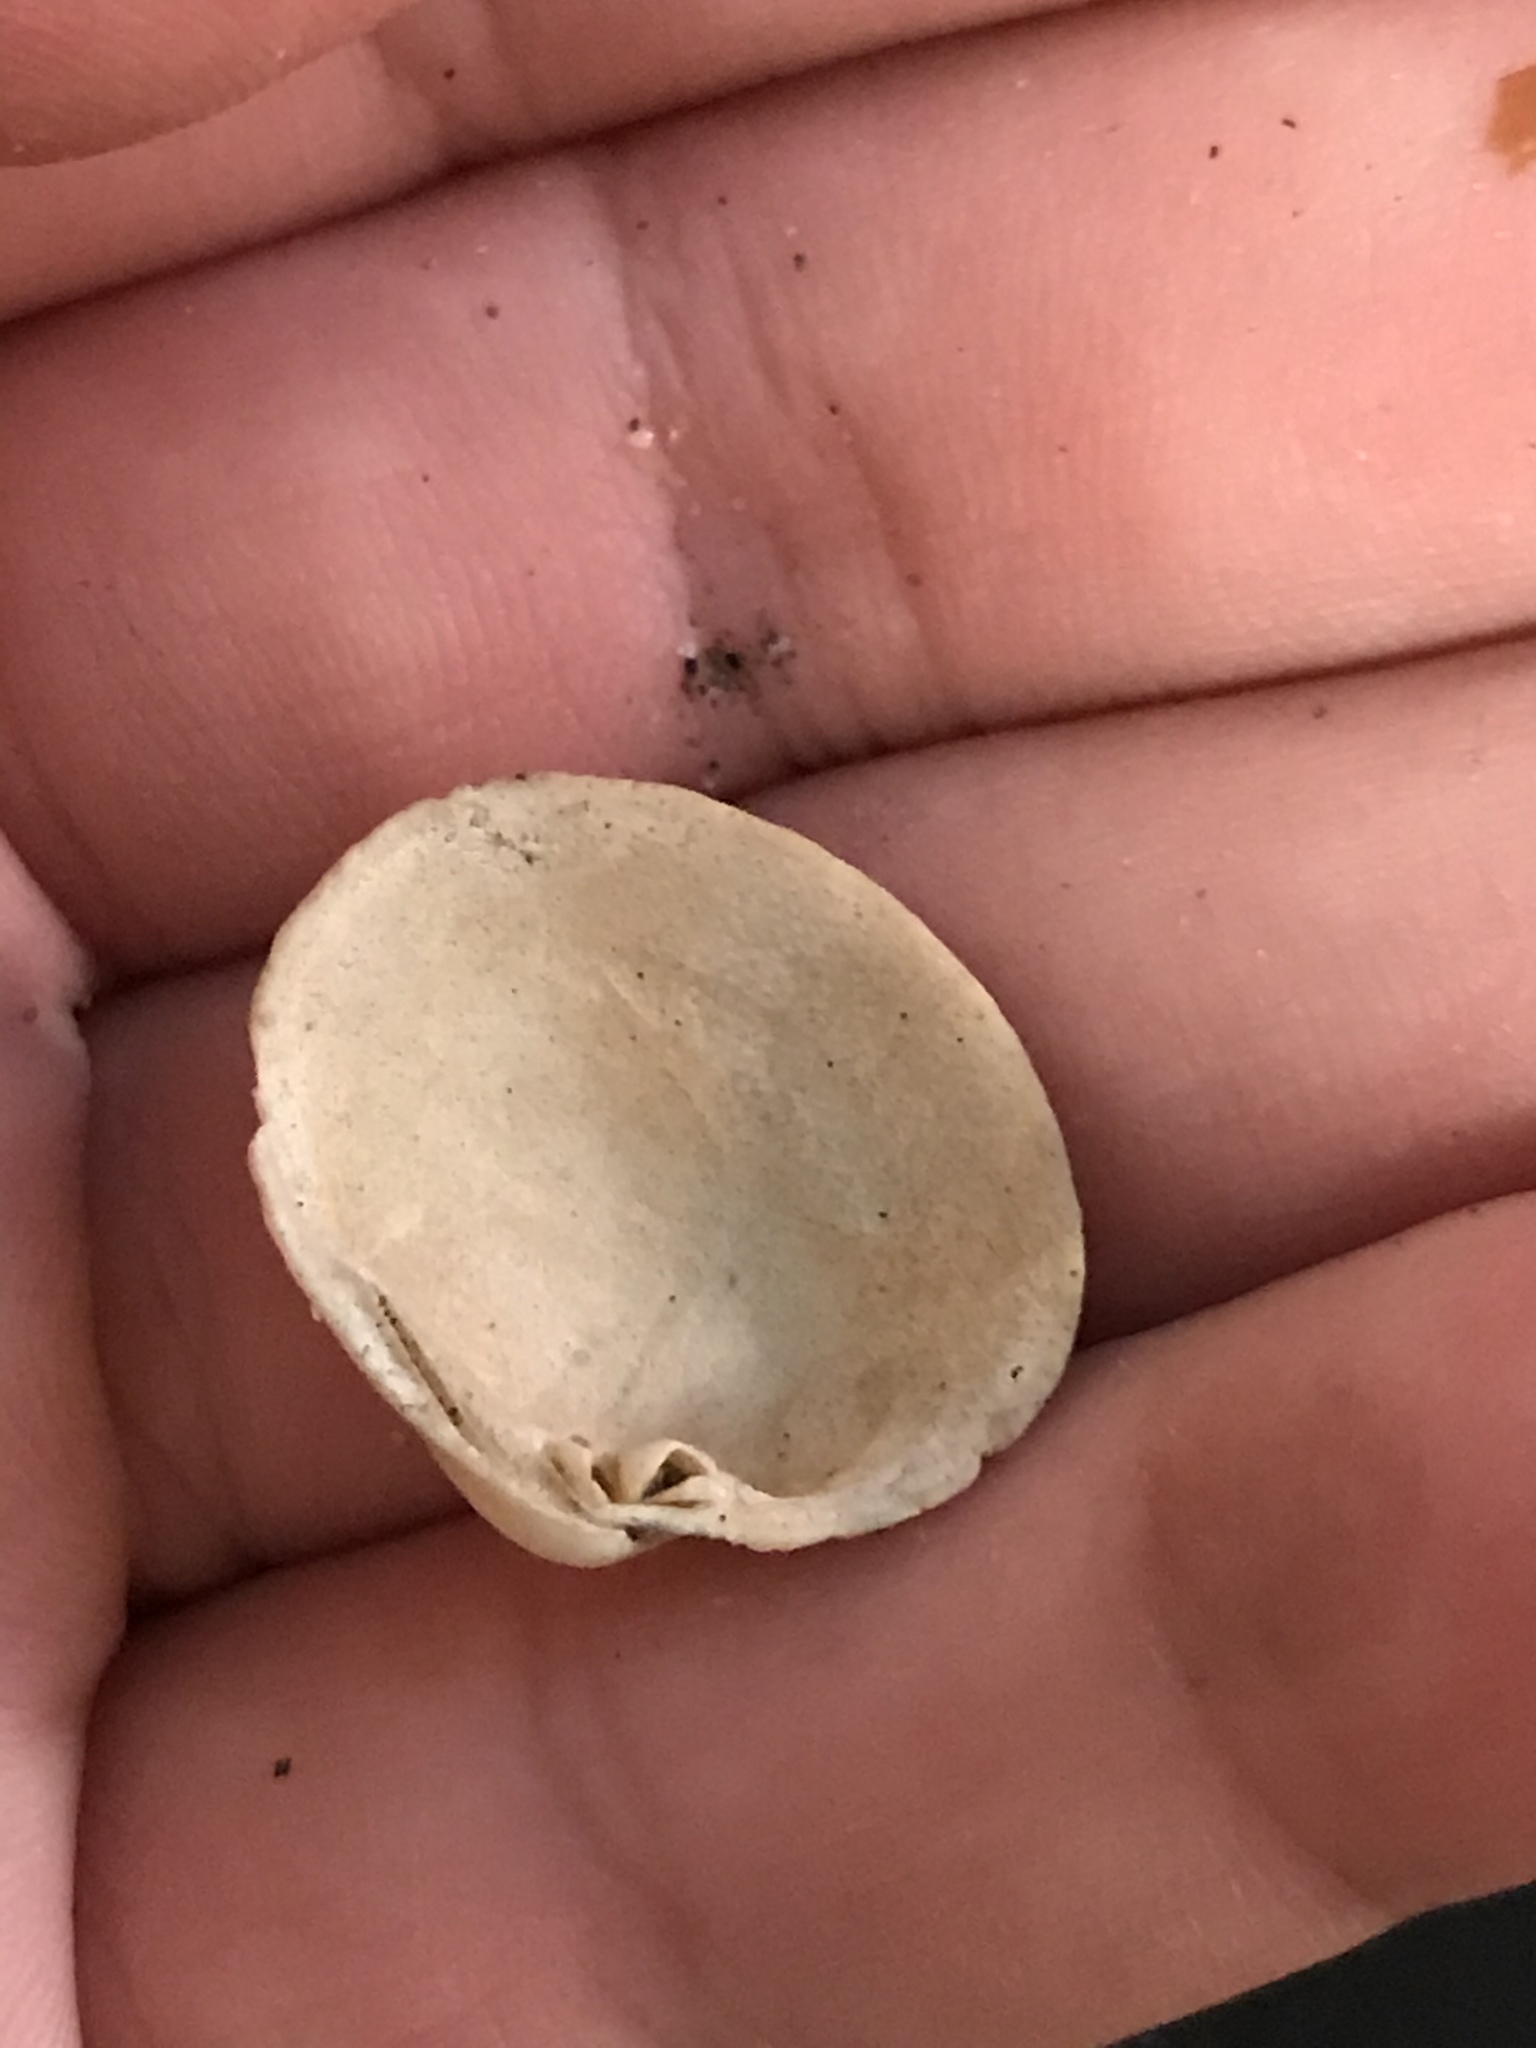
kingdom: Animalia
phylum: Mollusca
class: Bivalvia
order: Venerida
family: Veneridae
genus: Leukoma
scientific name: Leukoma staminea
